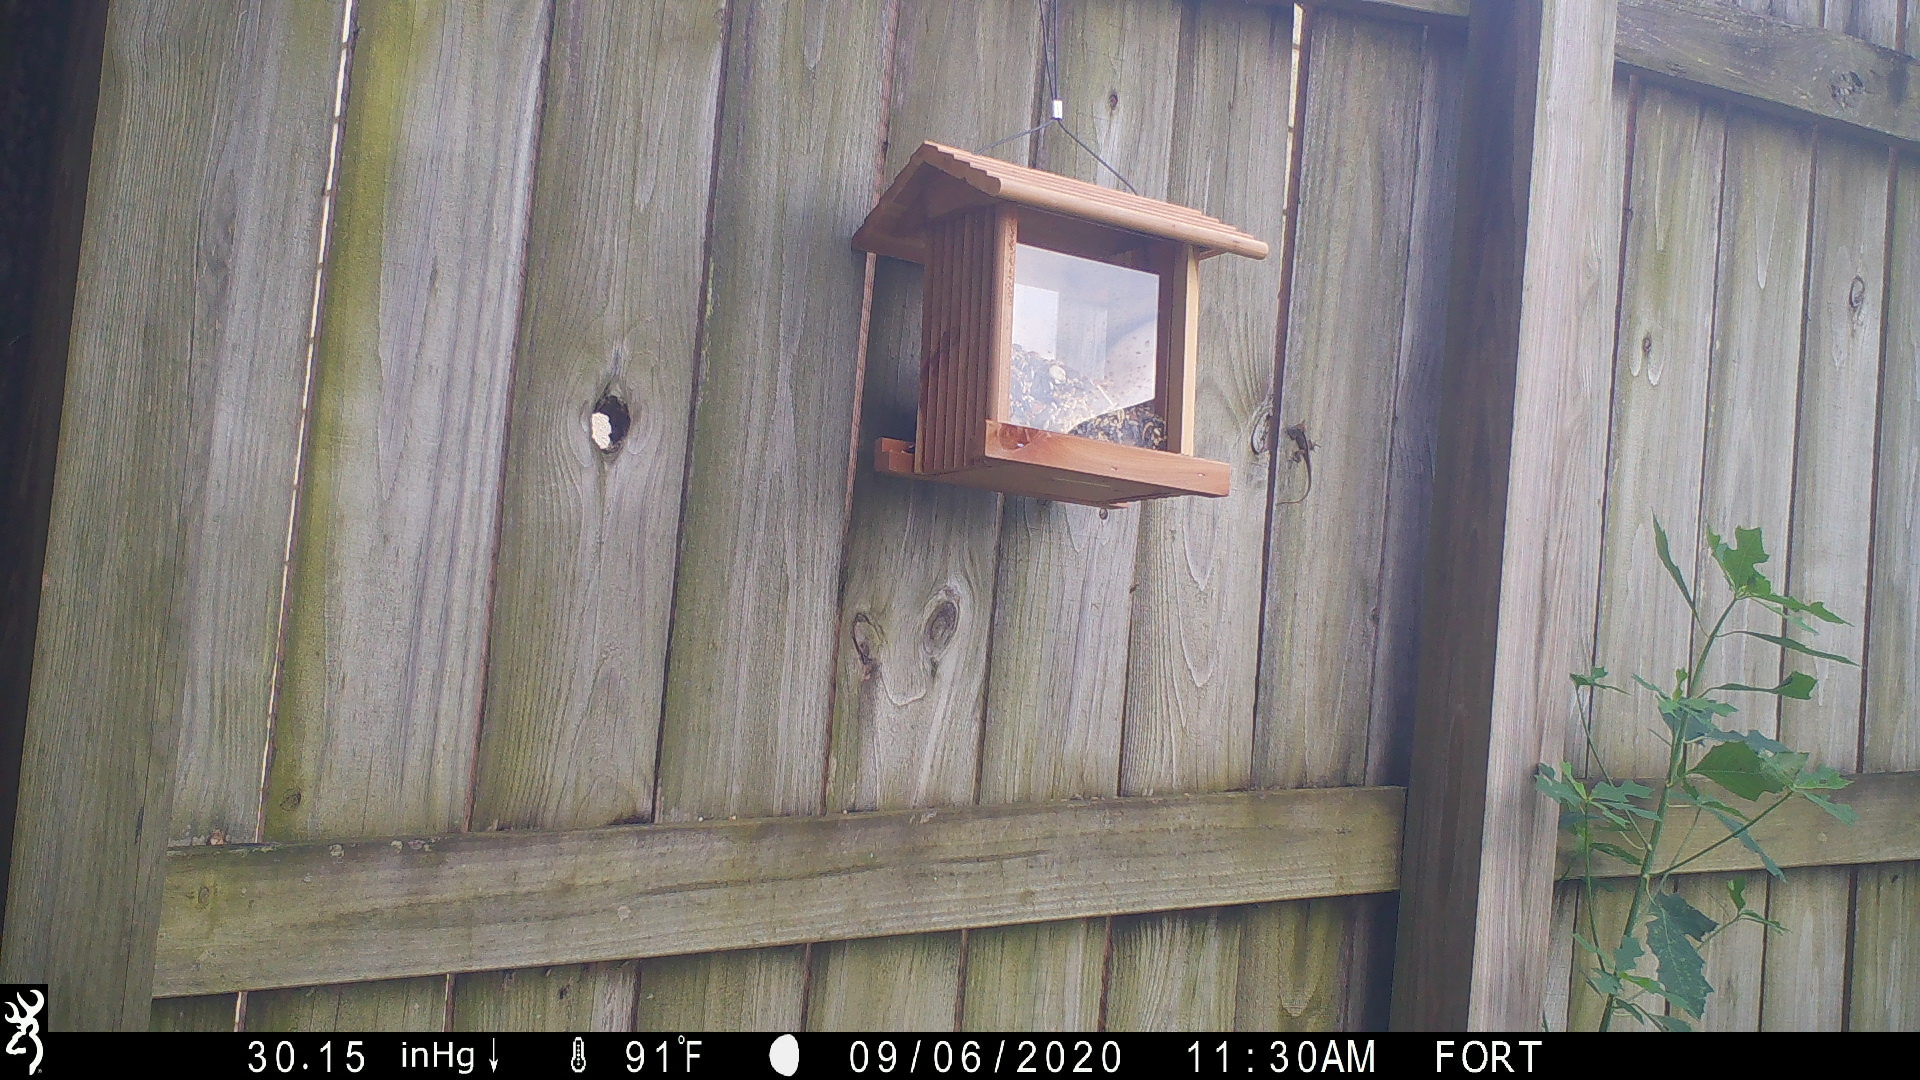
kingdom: Animalia
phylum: Chordata
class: Squamata
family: Dactyloidae
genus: Anolis
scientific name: Anolis sagrei
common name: Brown anole
